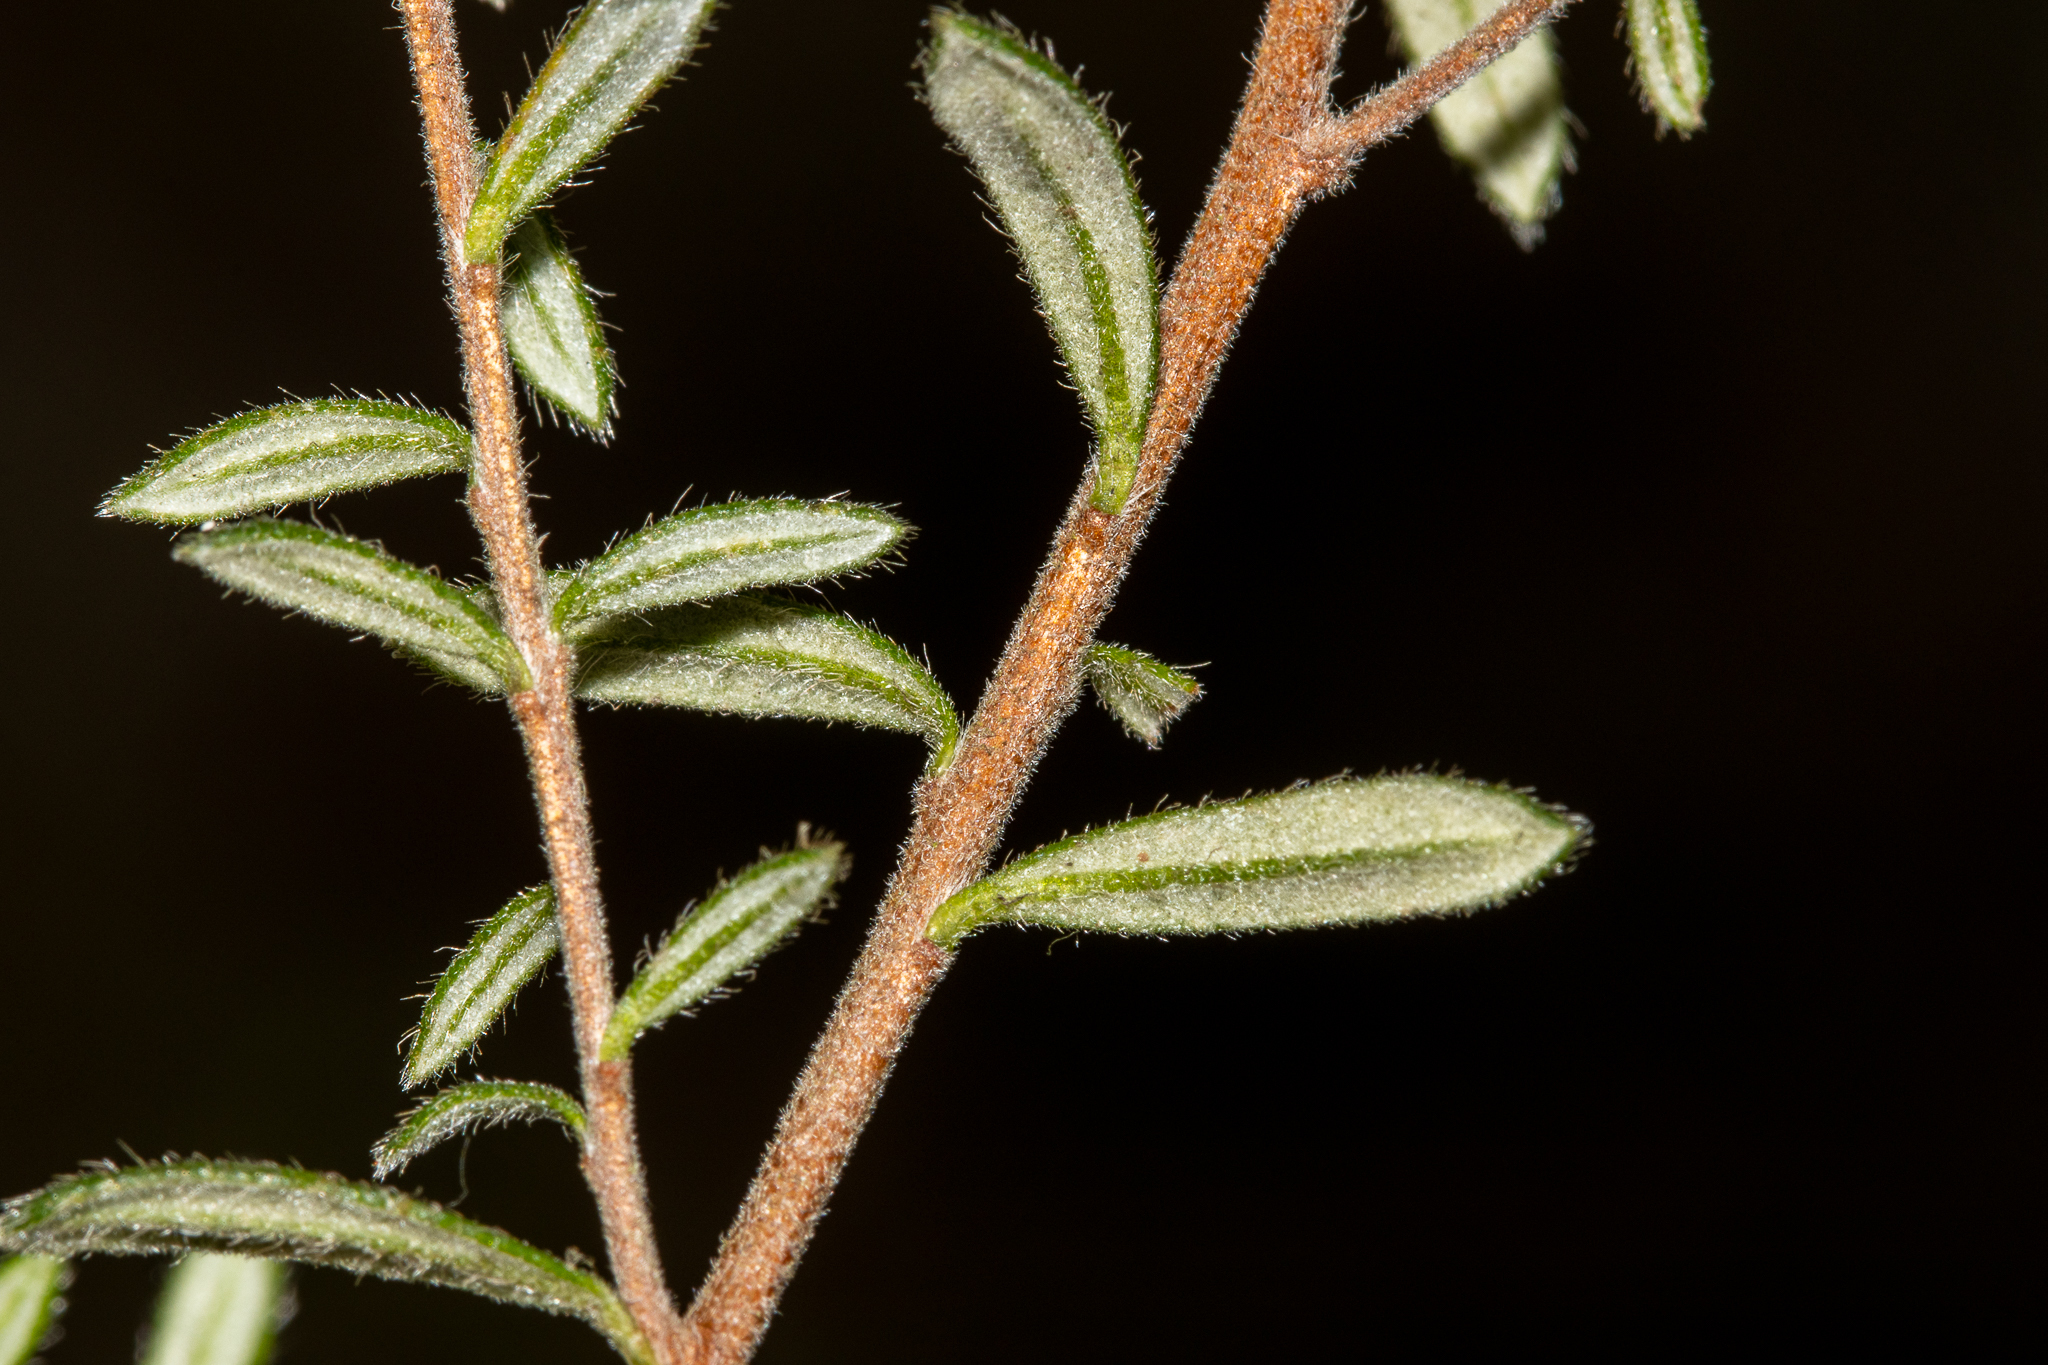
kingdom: Plantae
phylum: Tracheophyta
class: Magnoliopsida
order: Dilleniales
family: Dilleniaceae
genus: Hibbertia
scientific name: Hibbertia sericea
